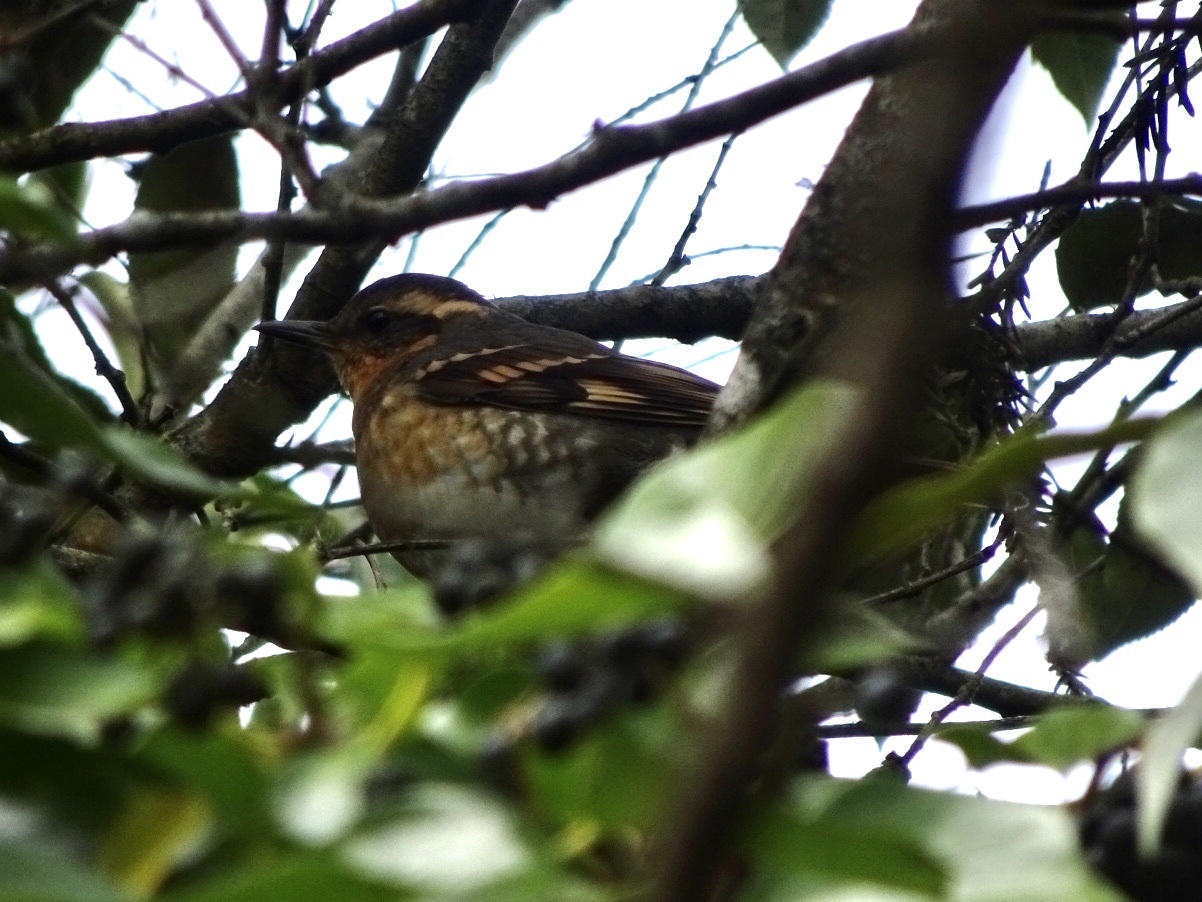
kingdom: Animalia
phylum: Chordata
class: Aves
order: Passeriformes
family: Turdidae
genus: Ixoreus
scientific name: Ixoreus naevius
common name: Varied thrush
